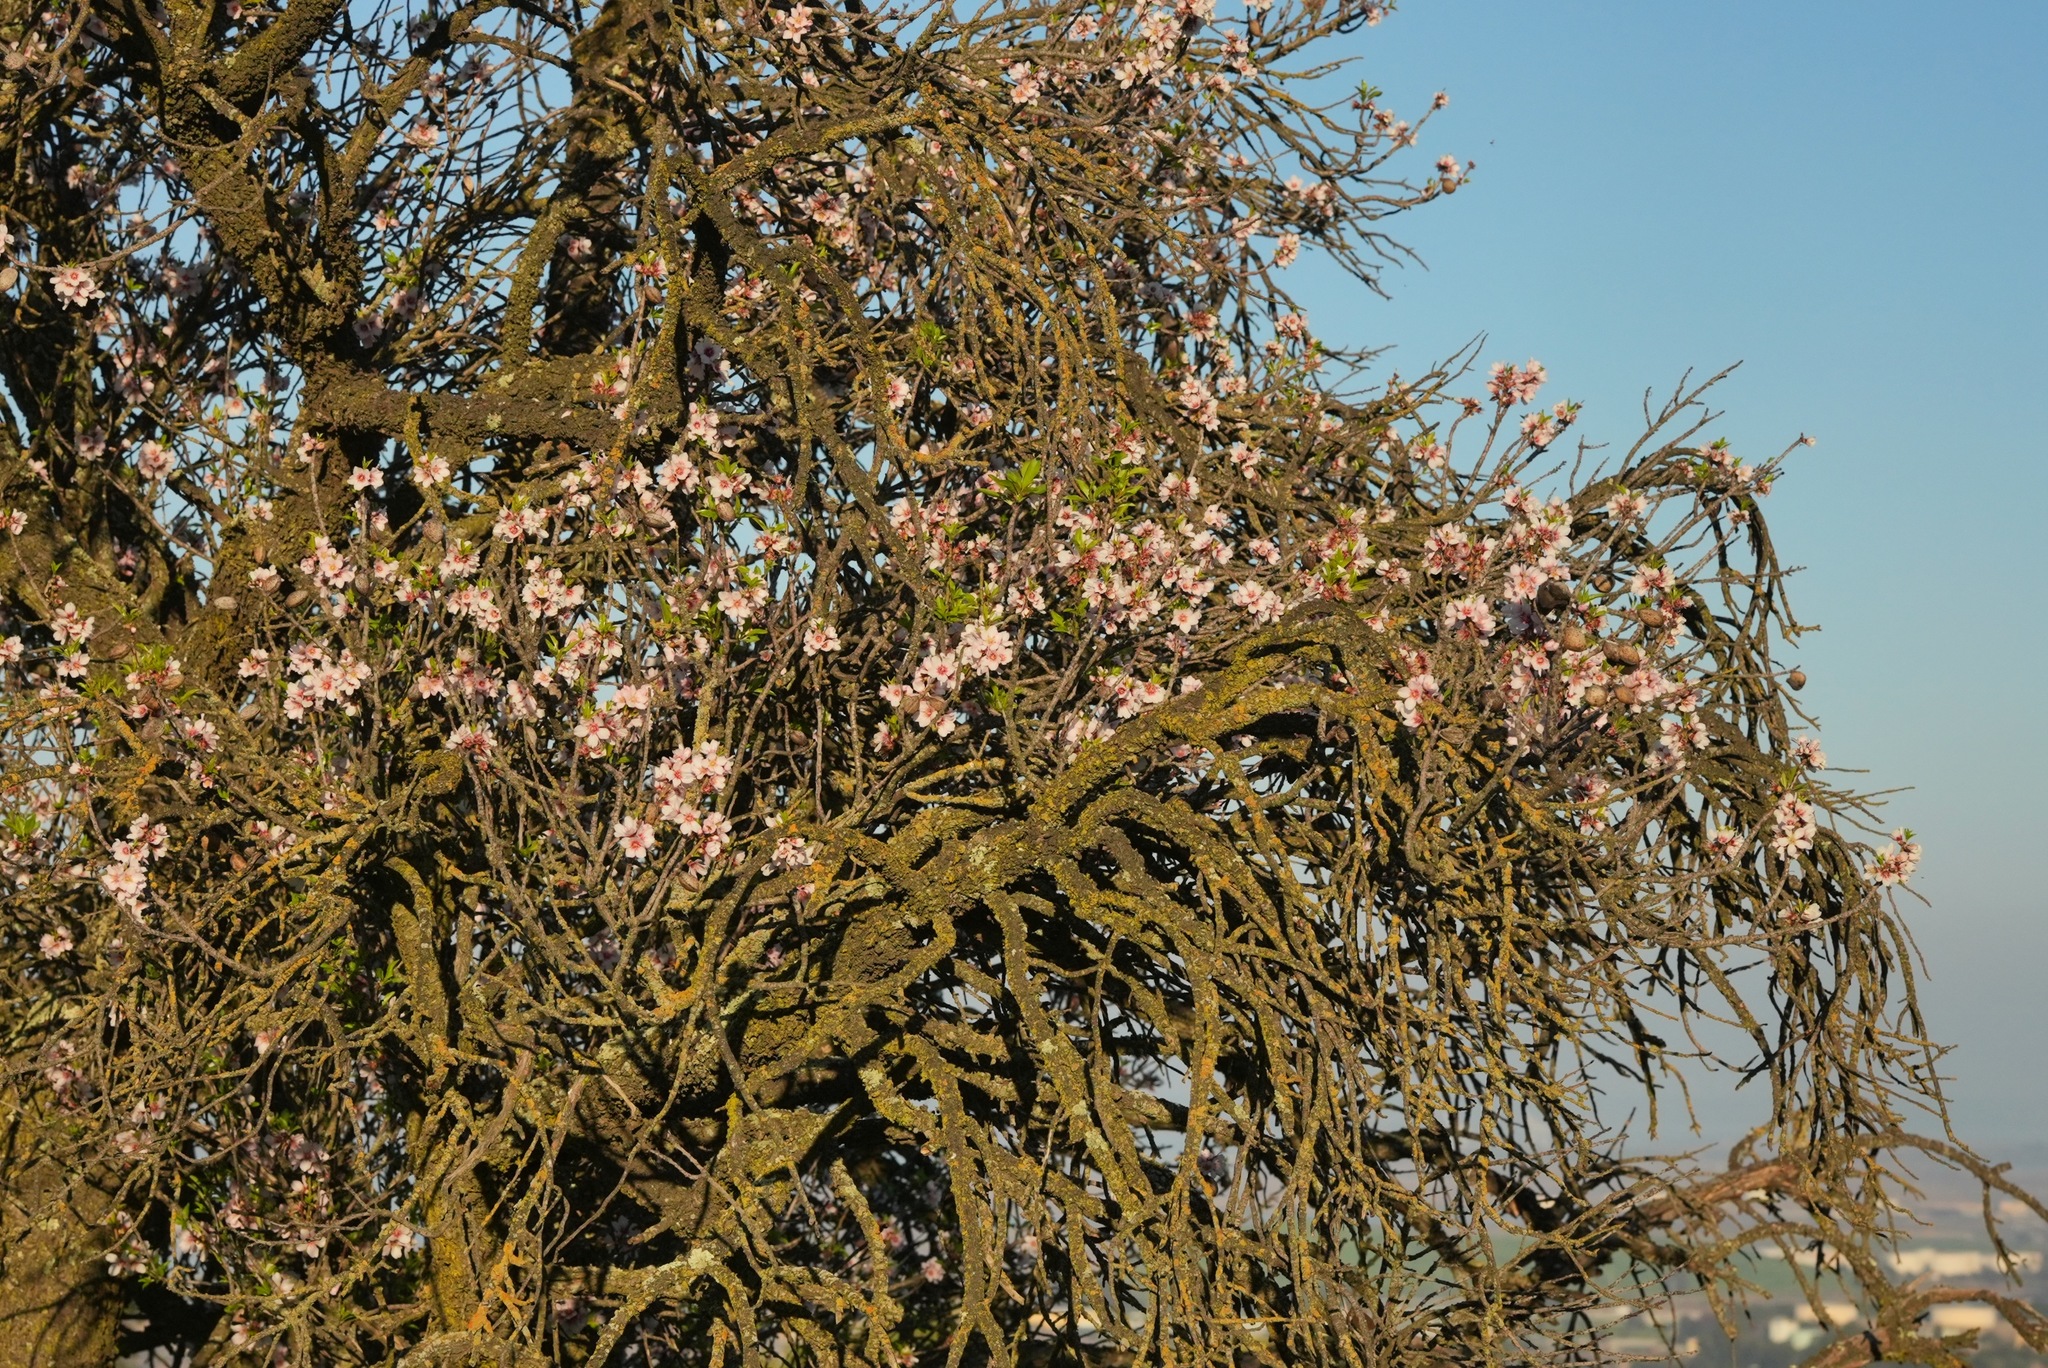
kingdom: Plantae
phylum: Tracheophyta
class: Magnoliopsida
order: Rosales
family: Rosaceae
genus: Prunus
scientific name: Prunus amygdalus
